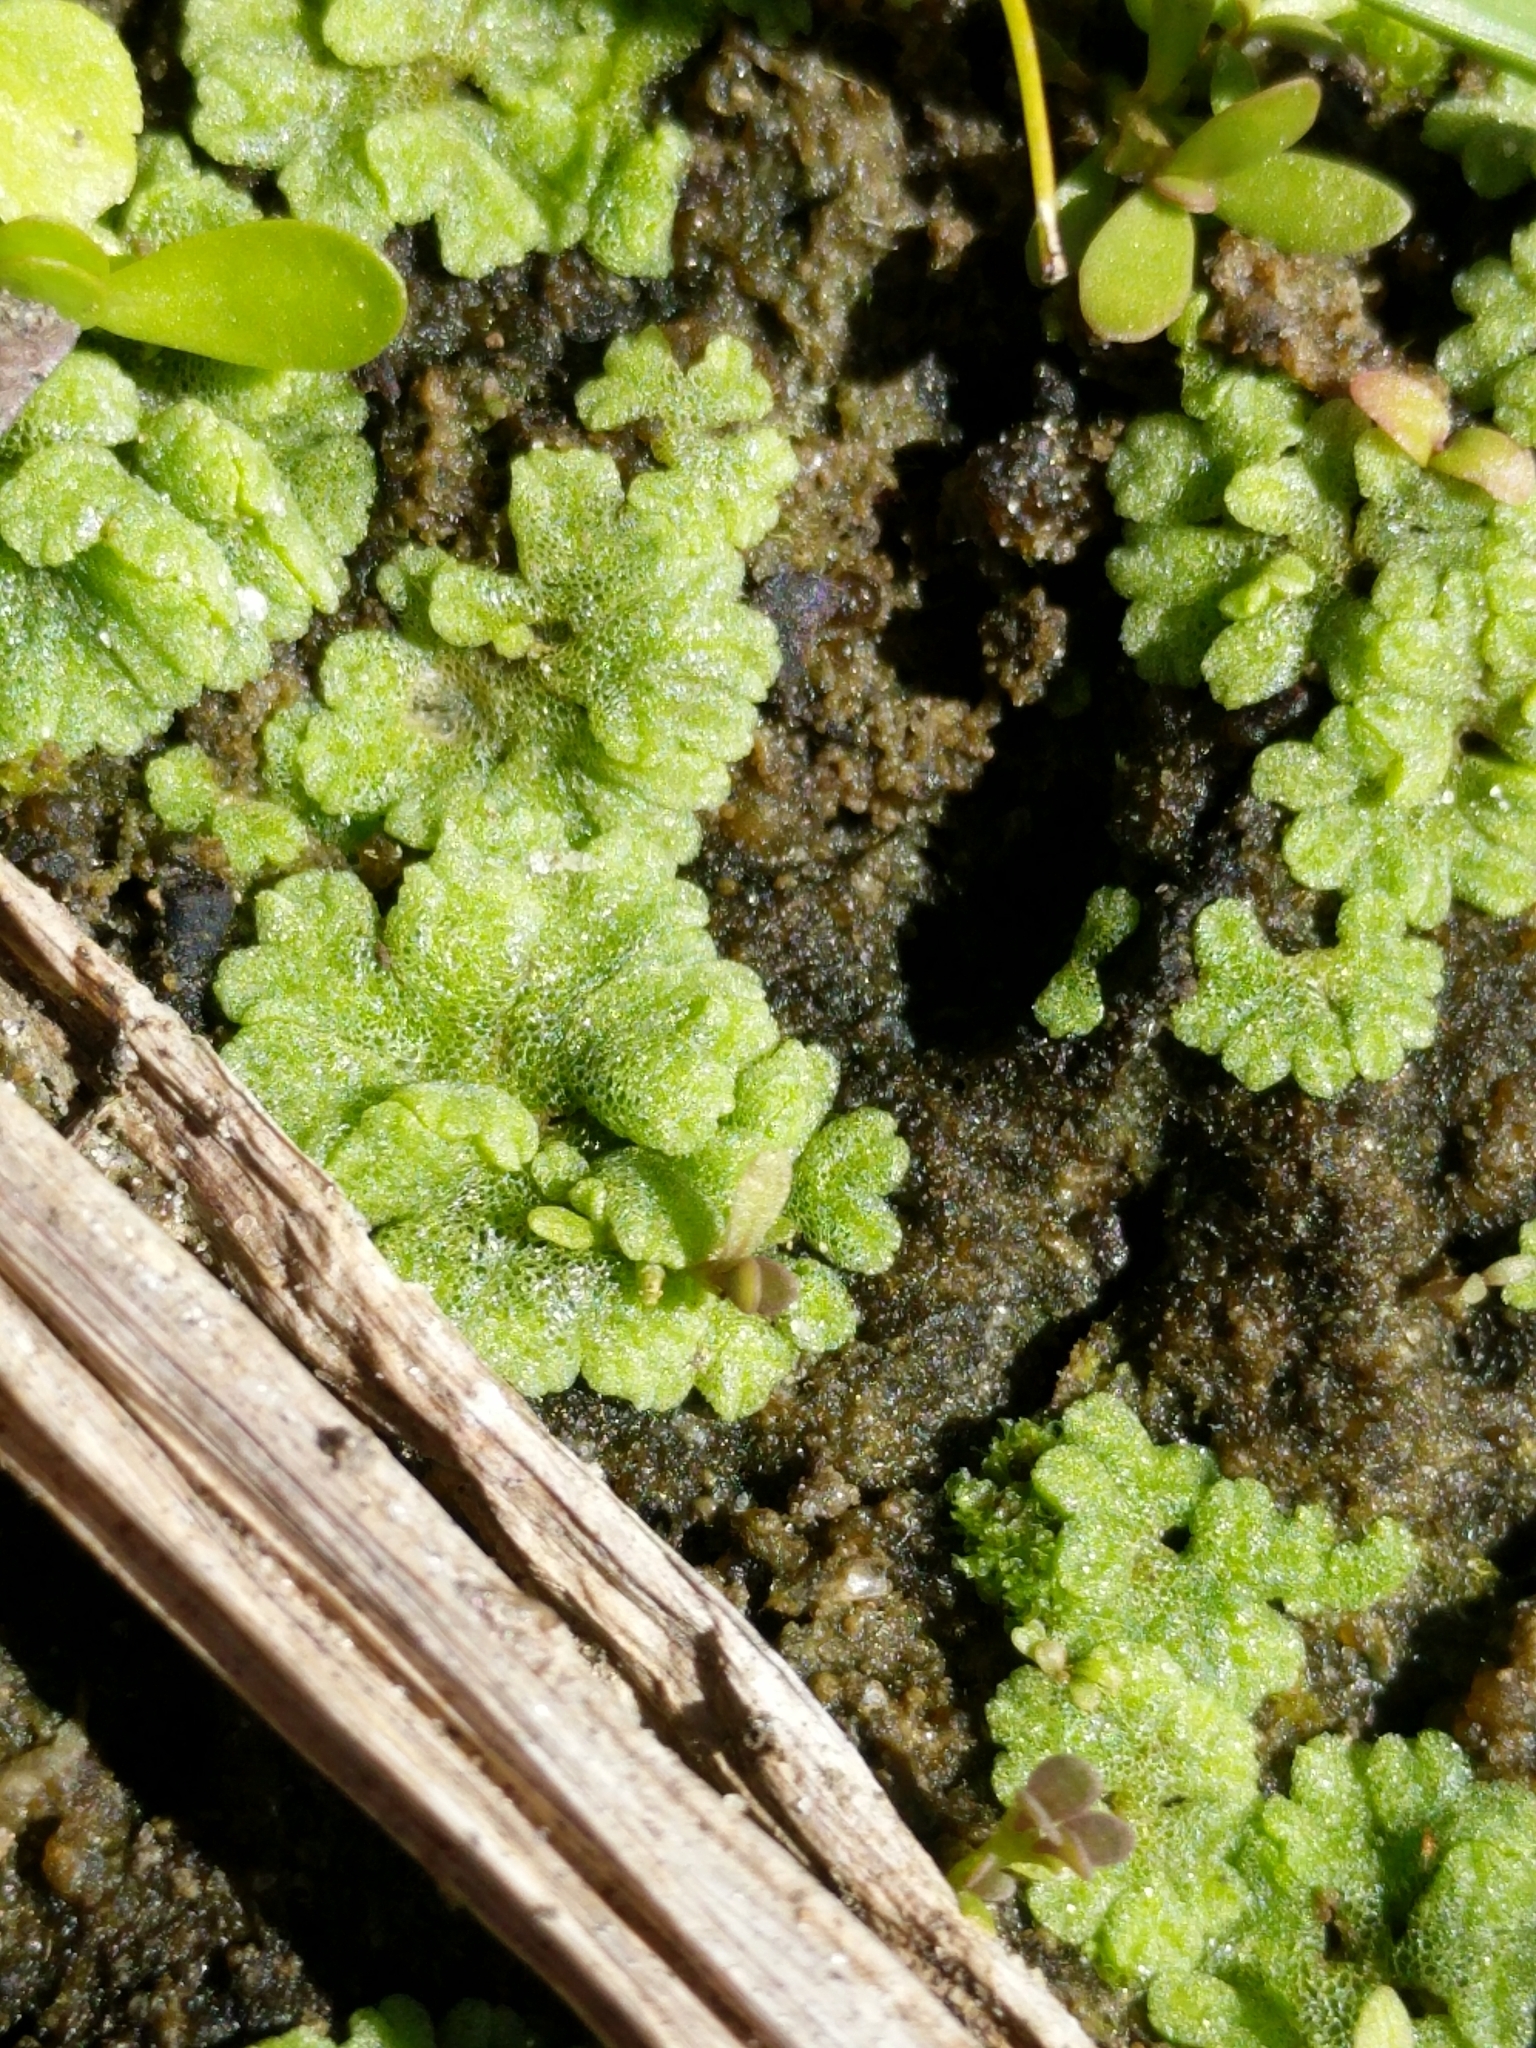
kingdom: Plantae
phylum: Marchantiophyta
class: Marchantiopsida
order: Marchantiales
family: Ricciaceae
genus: Riccia
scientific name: Riccia cavernosa
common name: Cavernous crystalwort
